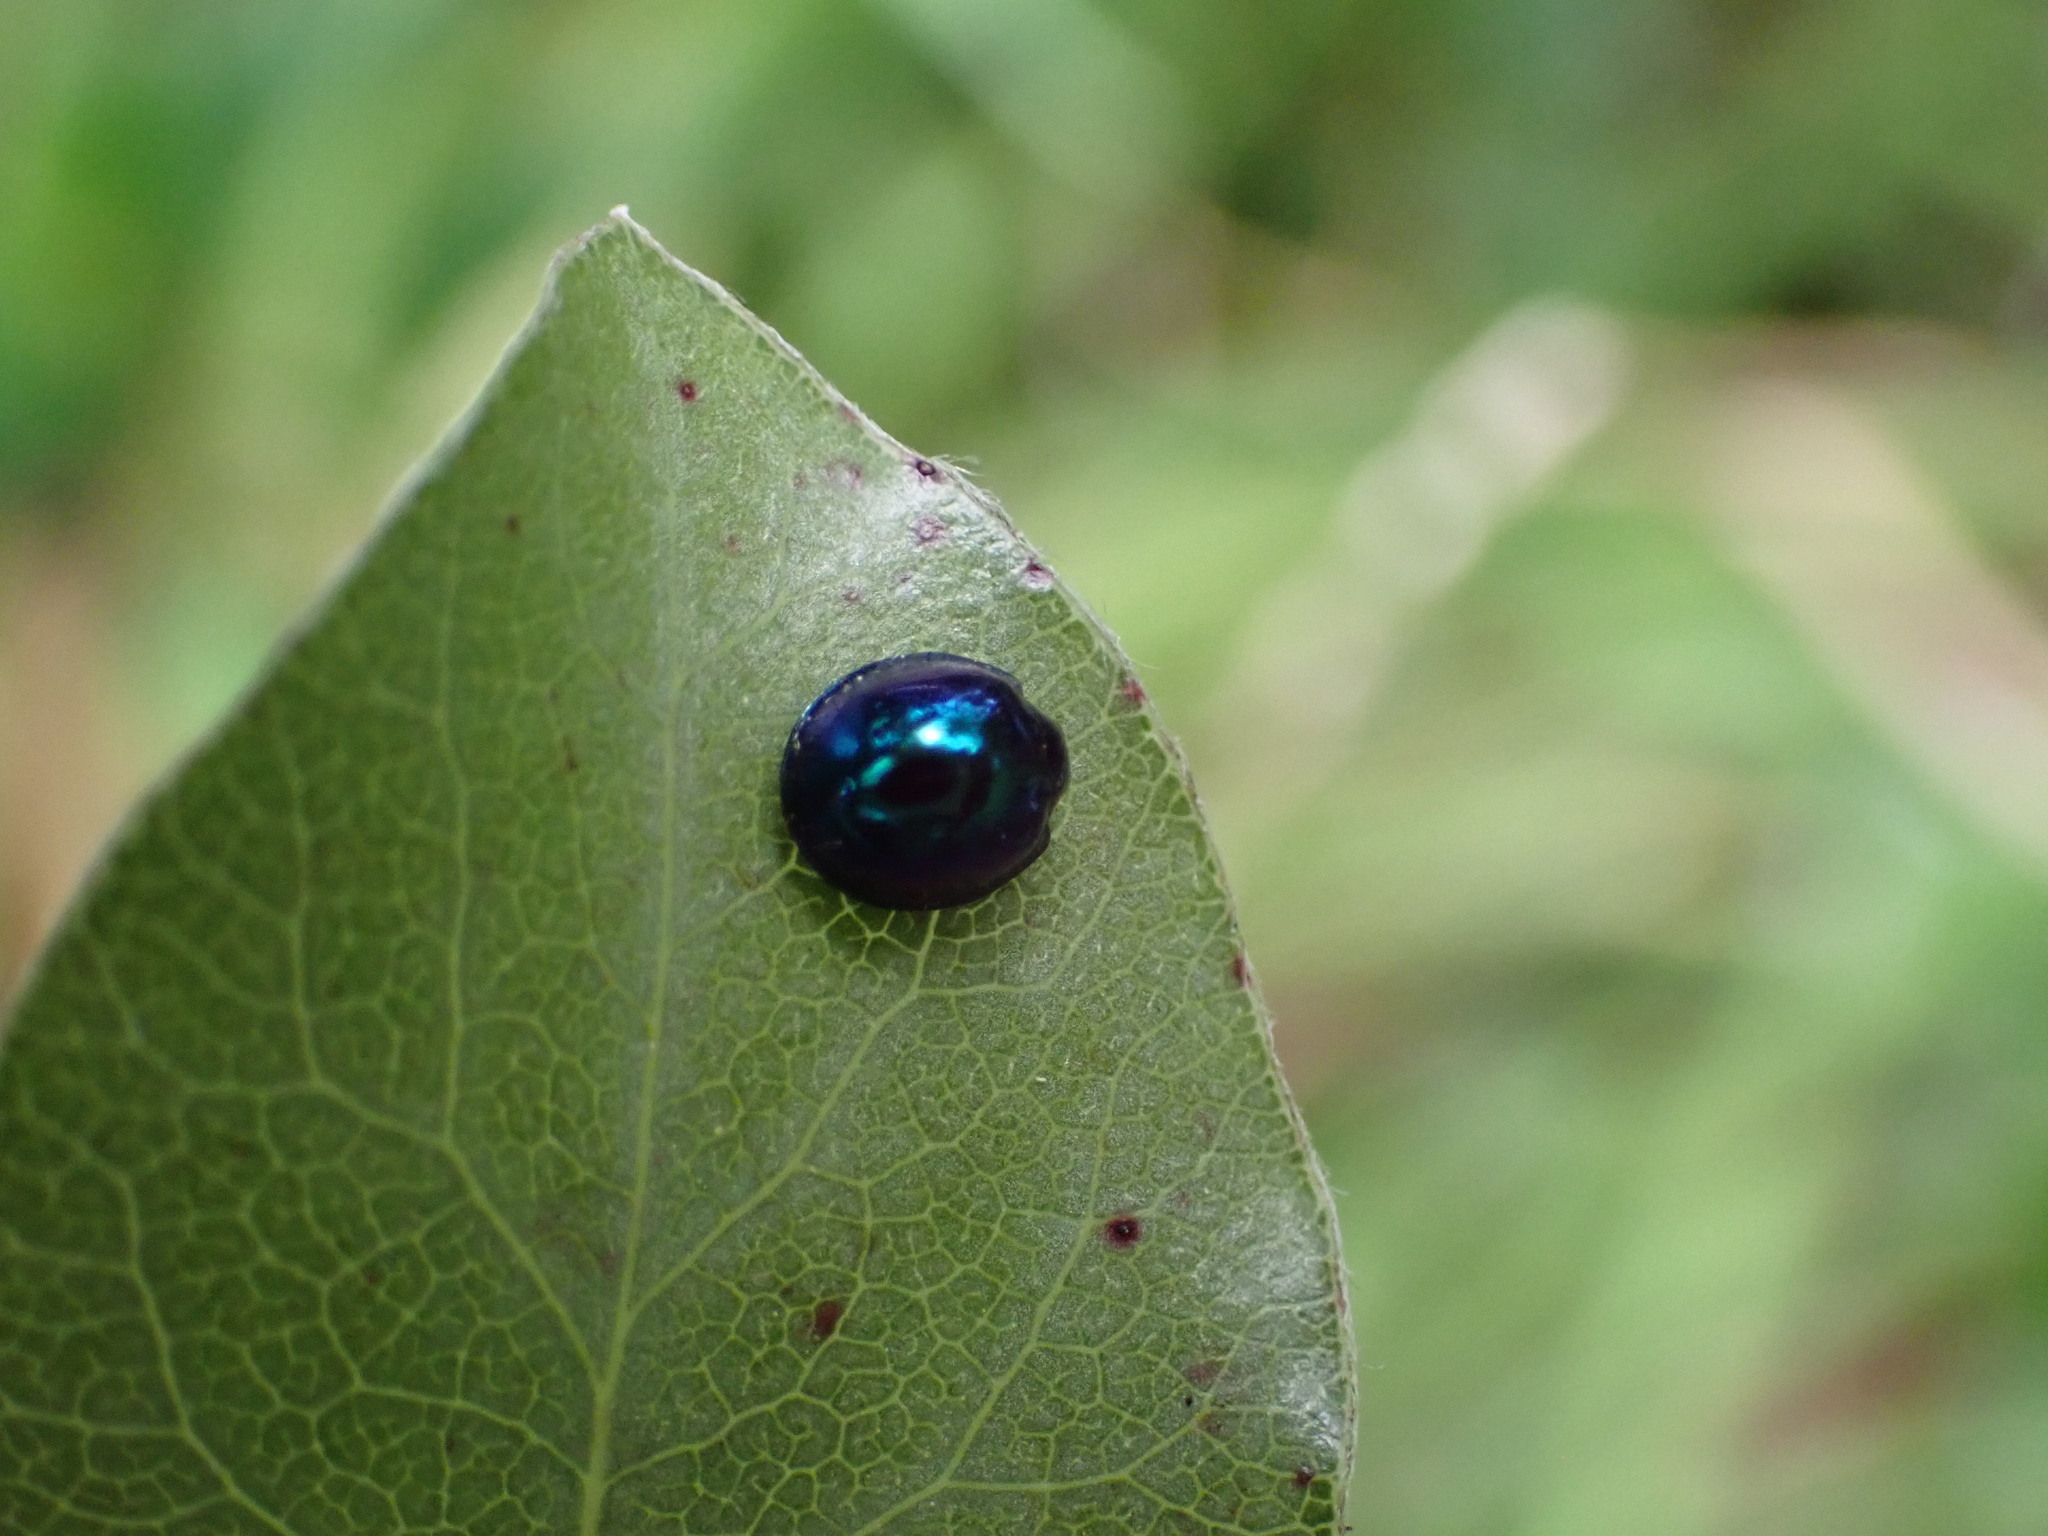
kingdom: Animalia
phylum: Arthropoda
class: Insecta
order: Coleoptera
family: Coccinellidae
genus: Halmus
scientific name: Halmus chalybeus
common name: Steel blue ladybird beetle
